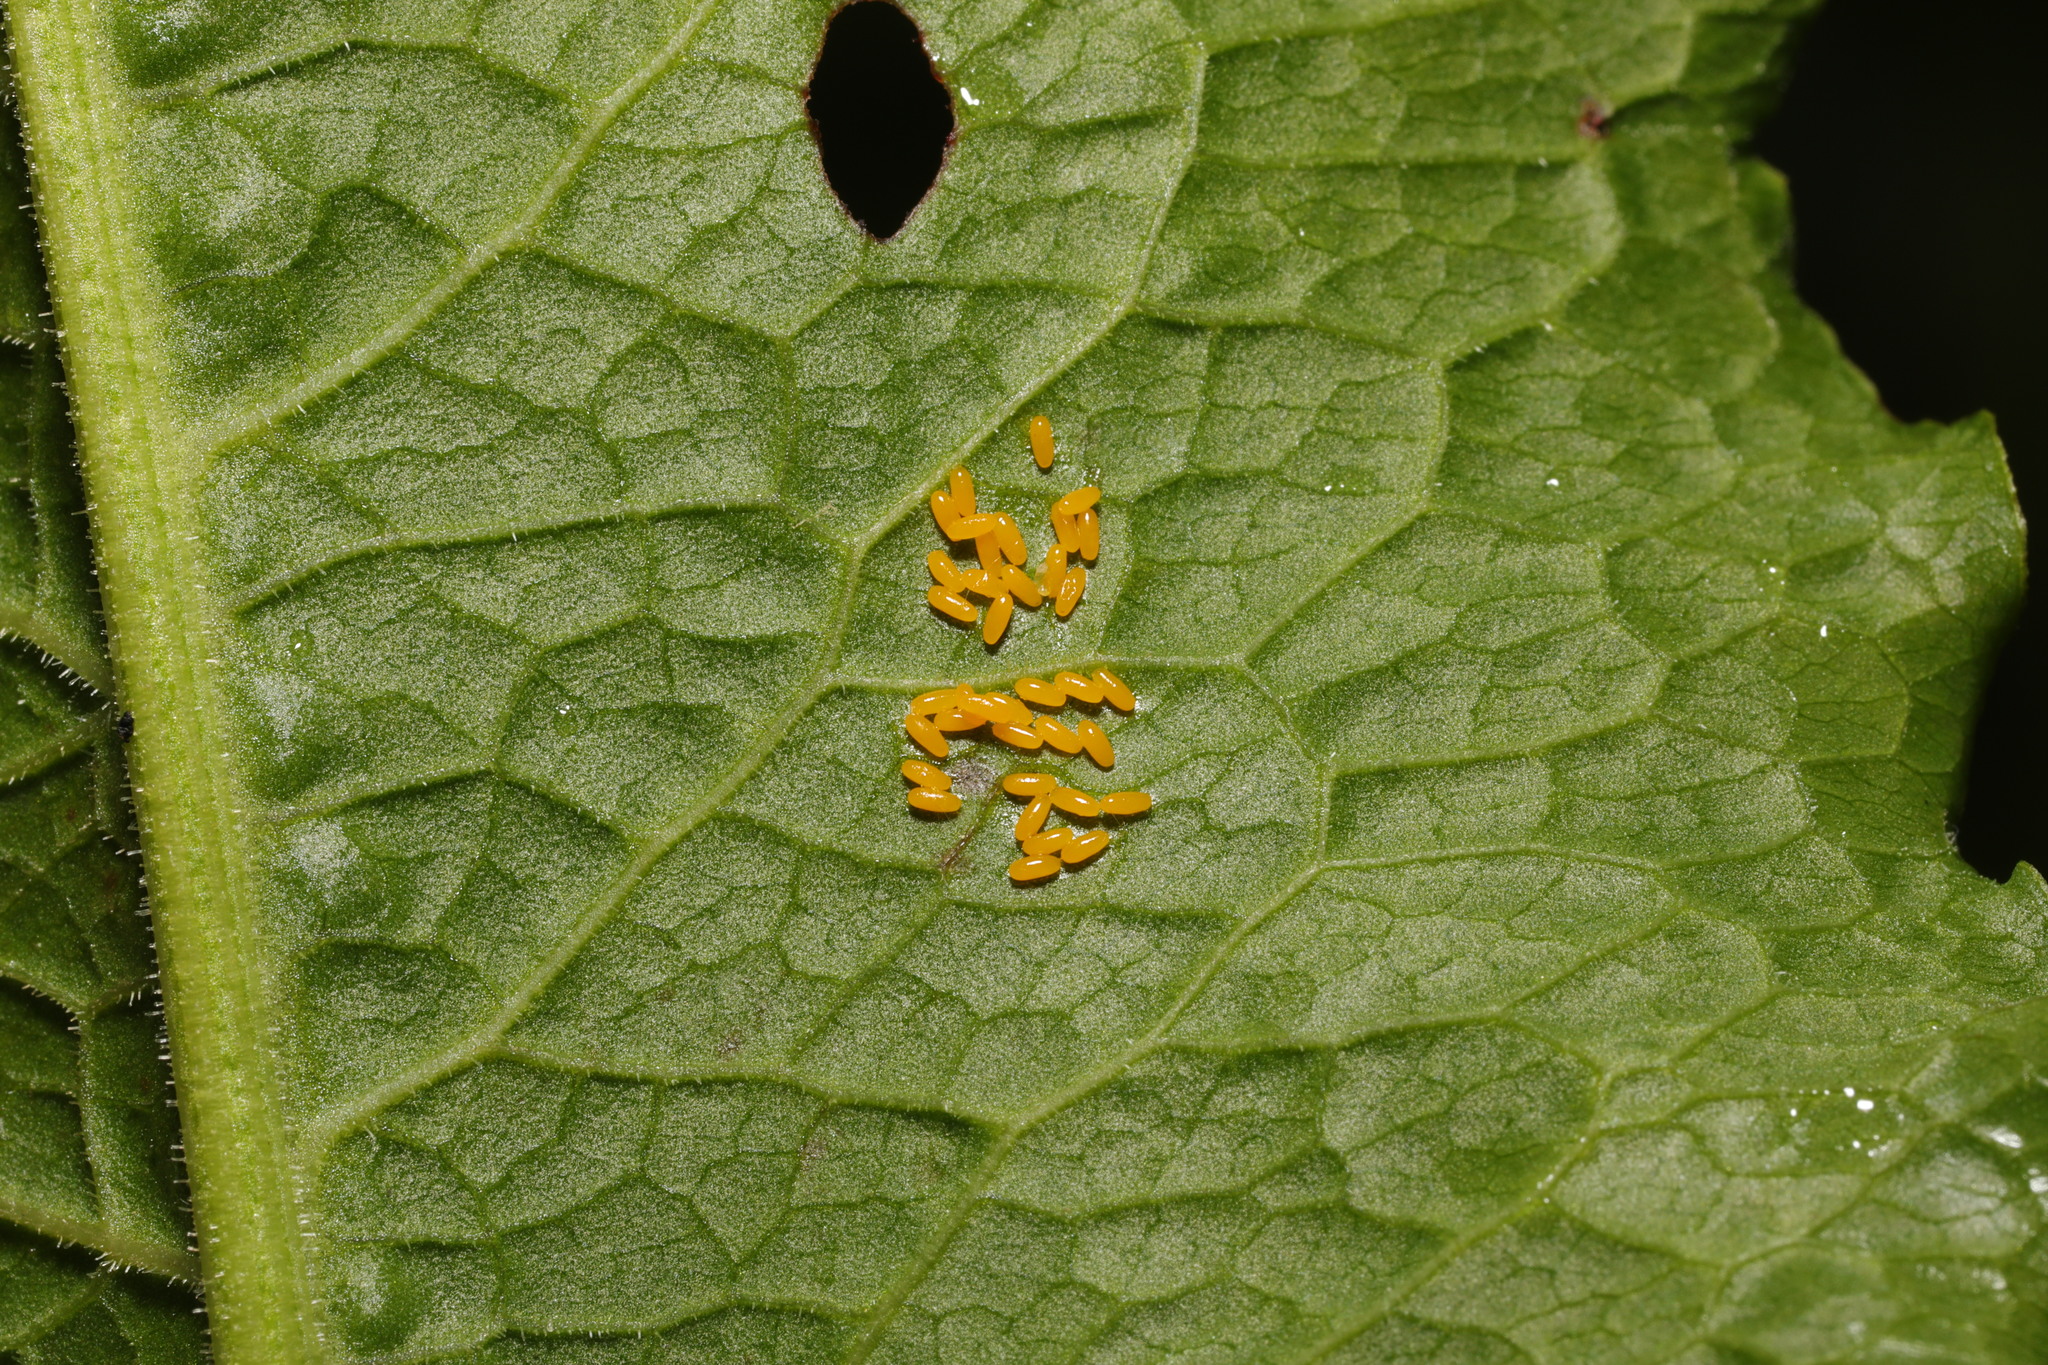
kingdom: Animalia
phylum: Arthropoda
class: Insecta
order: Coleoptera
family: Chrysomelidae
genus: Gastrophysa
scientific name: Gastrophysa viridula
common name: Green dock beetle
